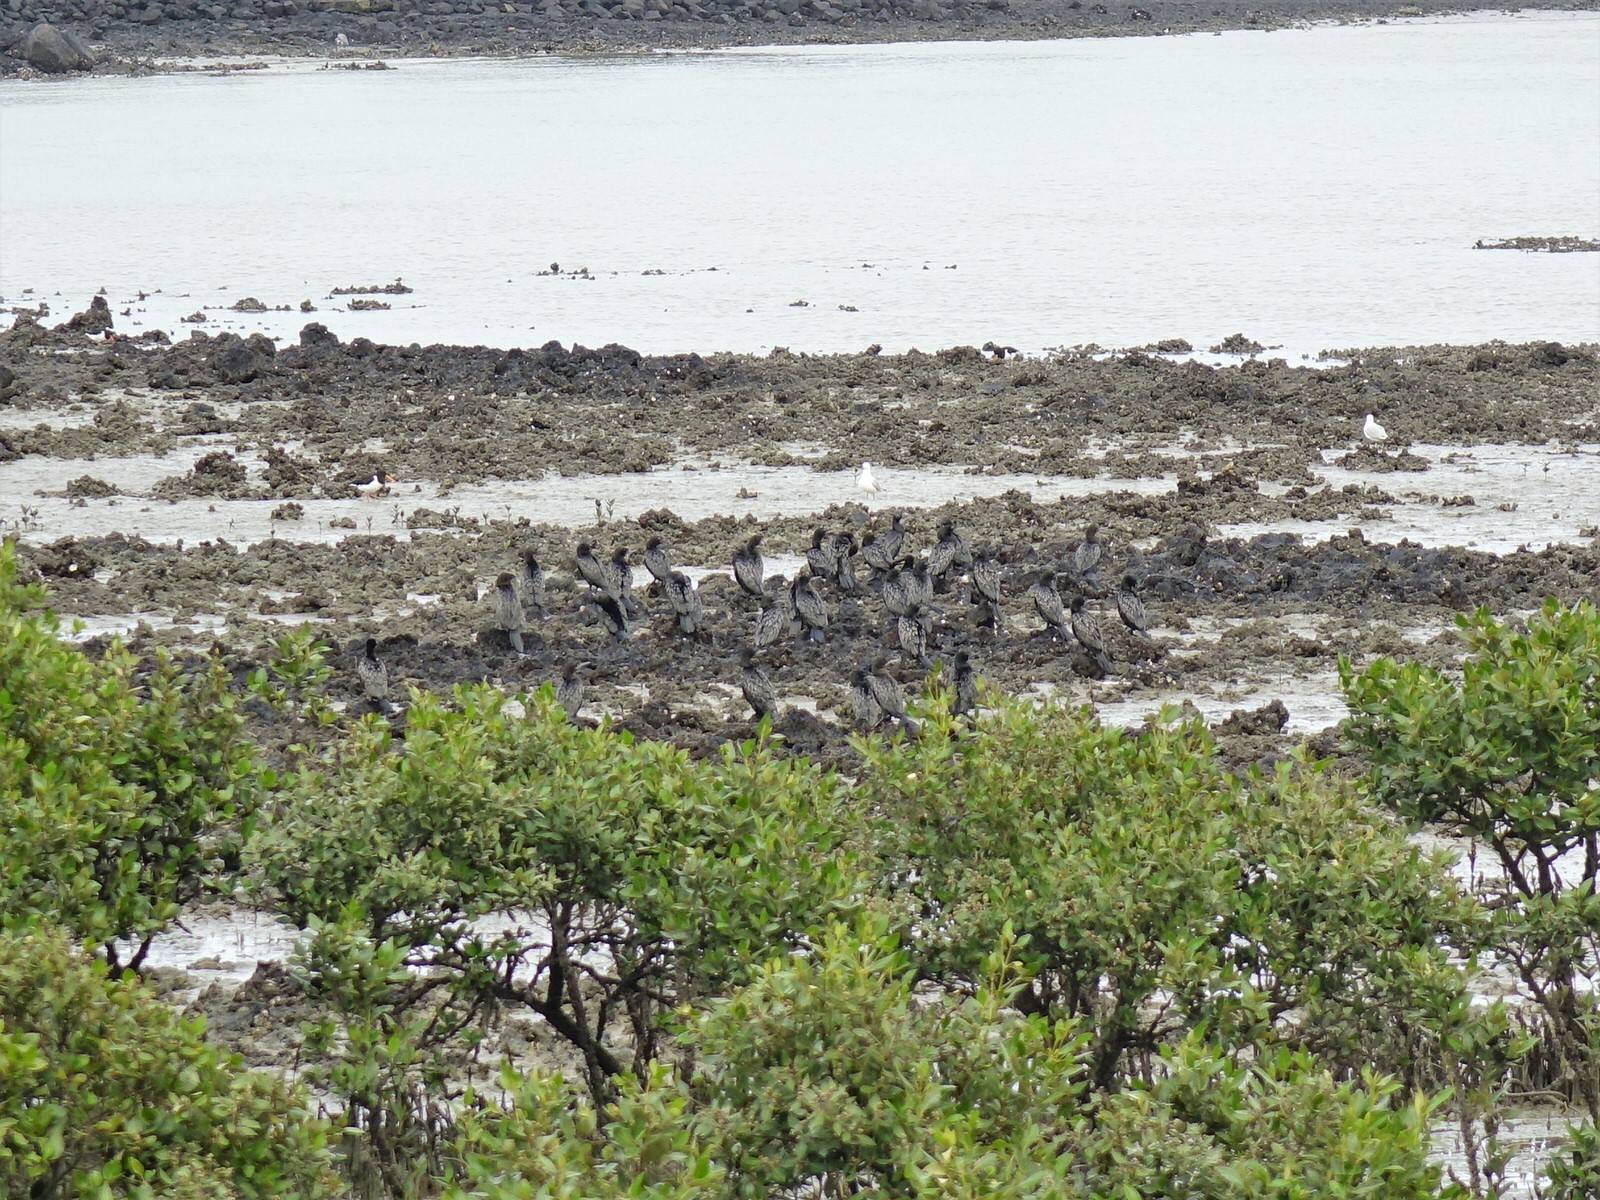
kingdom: Animalia
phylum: Chordata
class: Aves
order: Suliformes
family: Phalacrocoracidae
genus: Phalacrocorax
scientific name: Phalacrocorax sulcirostris
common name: Little black cormorant
